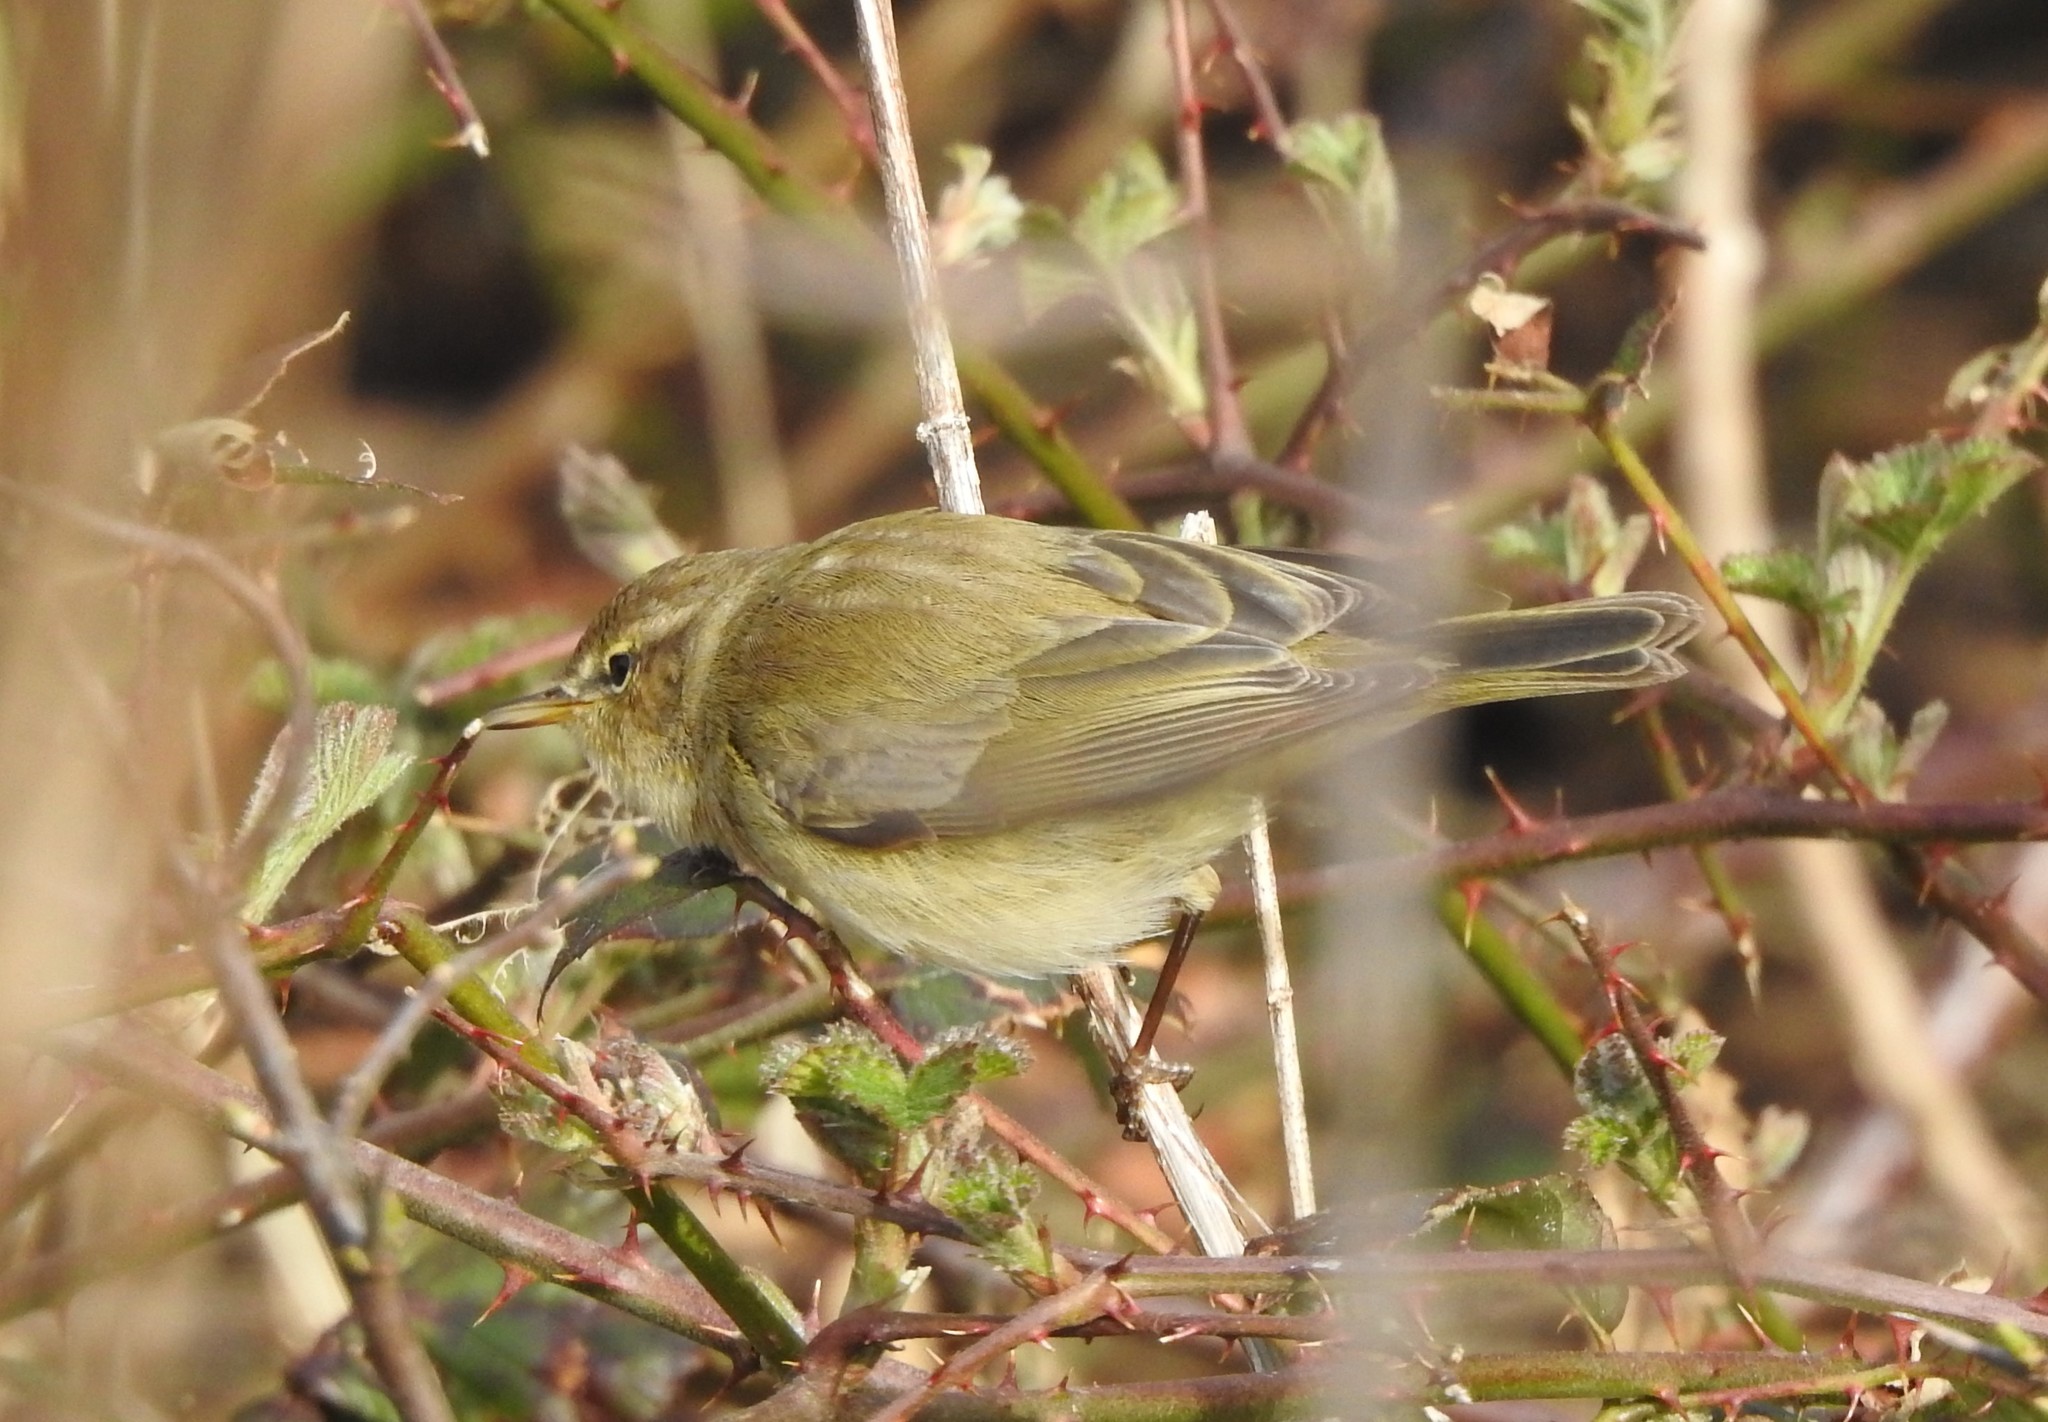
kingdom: Animalia
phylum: Chordata
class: Aves
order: Passeriformes
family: Phylloscopidae
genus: Phylloscopus
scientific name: Phylloscopus collybita
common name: Common chiffchaff
